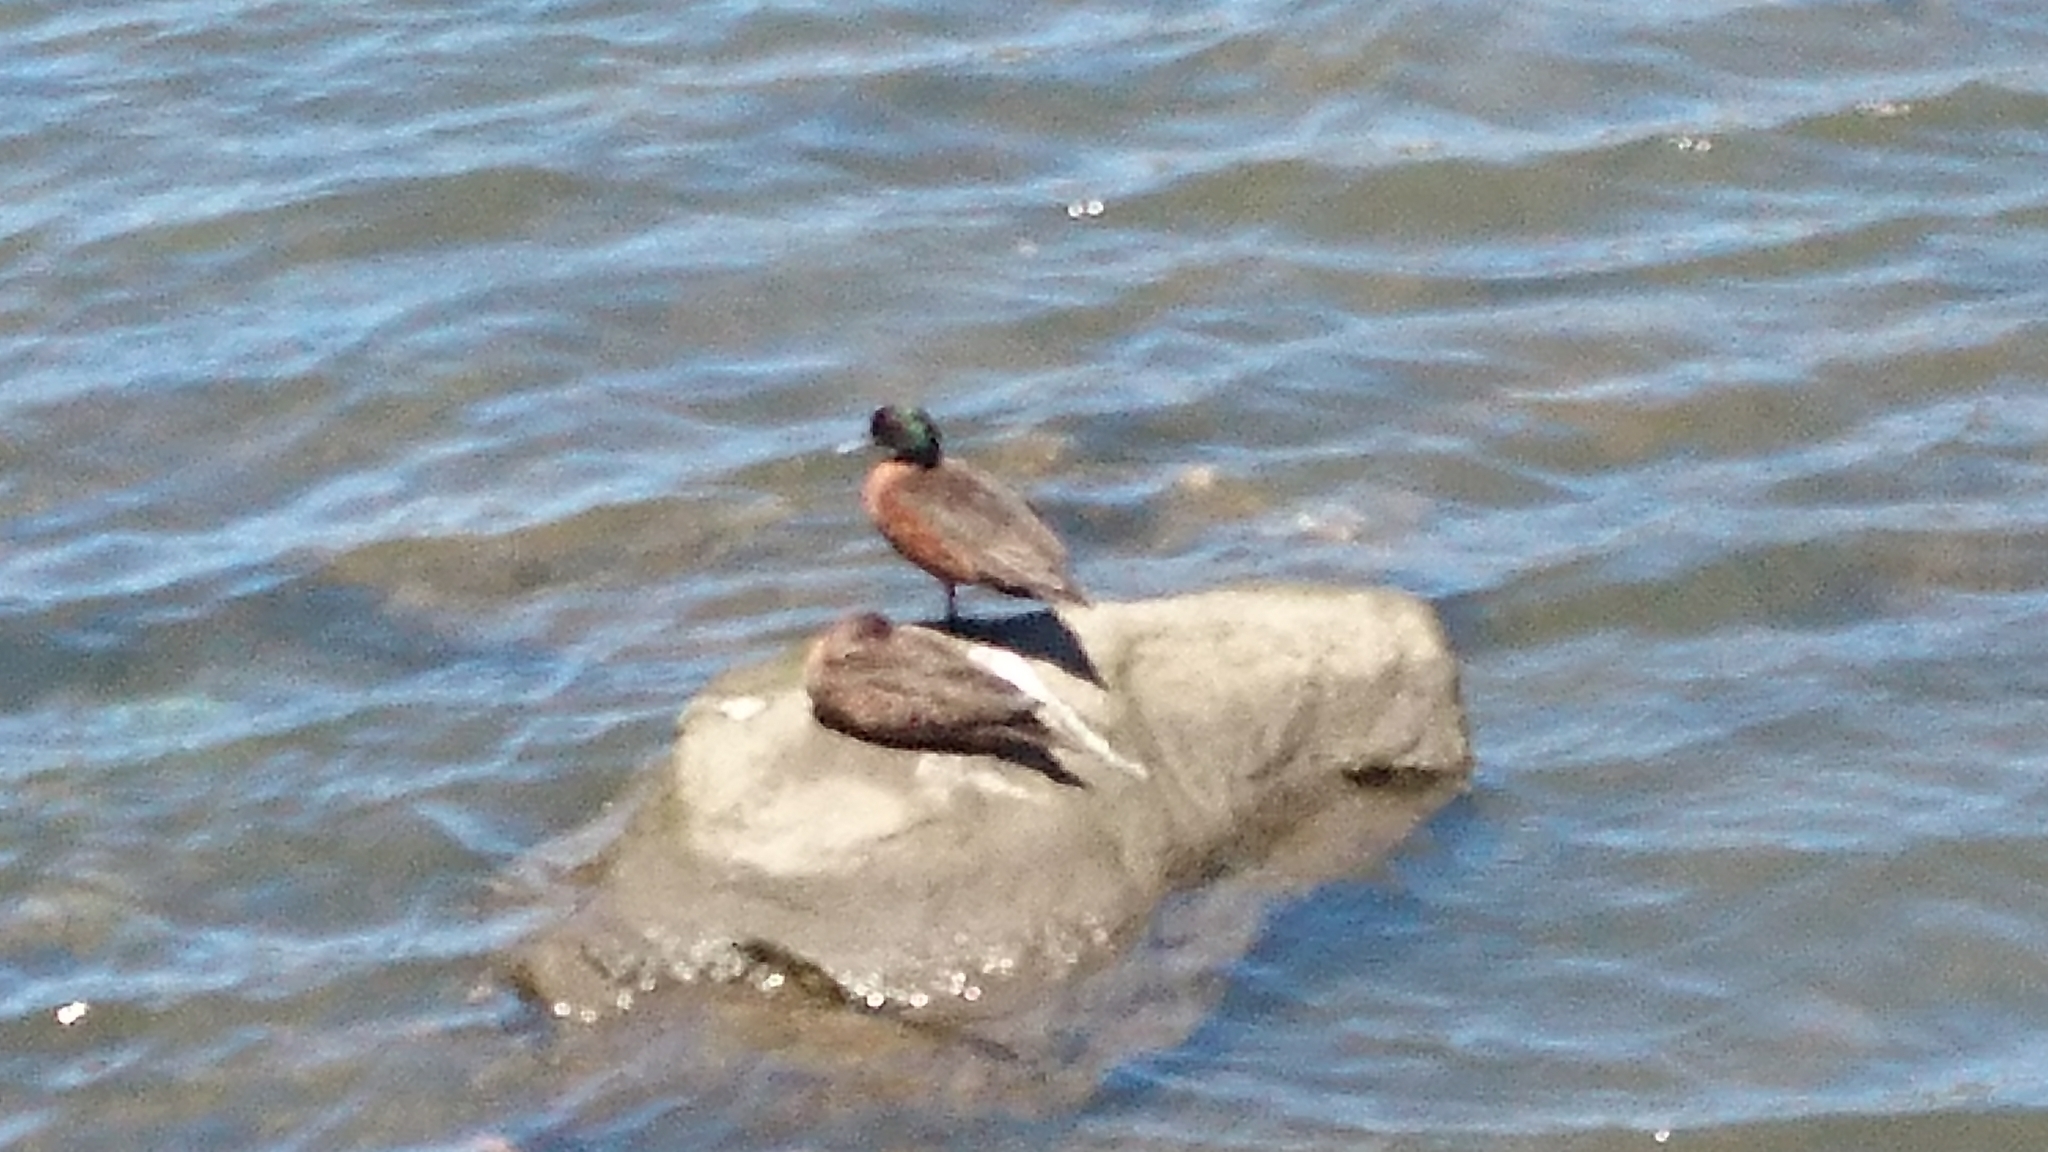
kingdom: Animalia
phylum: Chordata
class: Aves
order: Anseriformes
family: Anatidae
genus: Anas
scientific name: Anas castanea
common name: Chestnut teal
